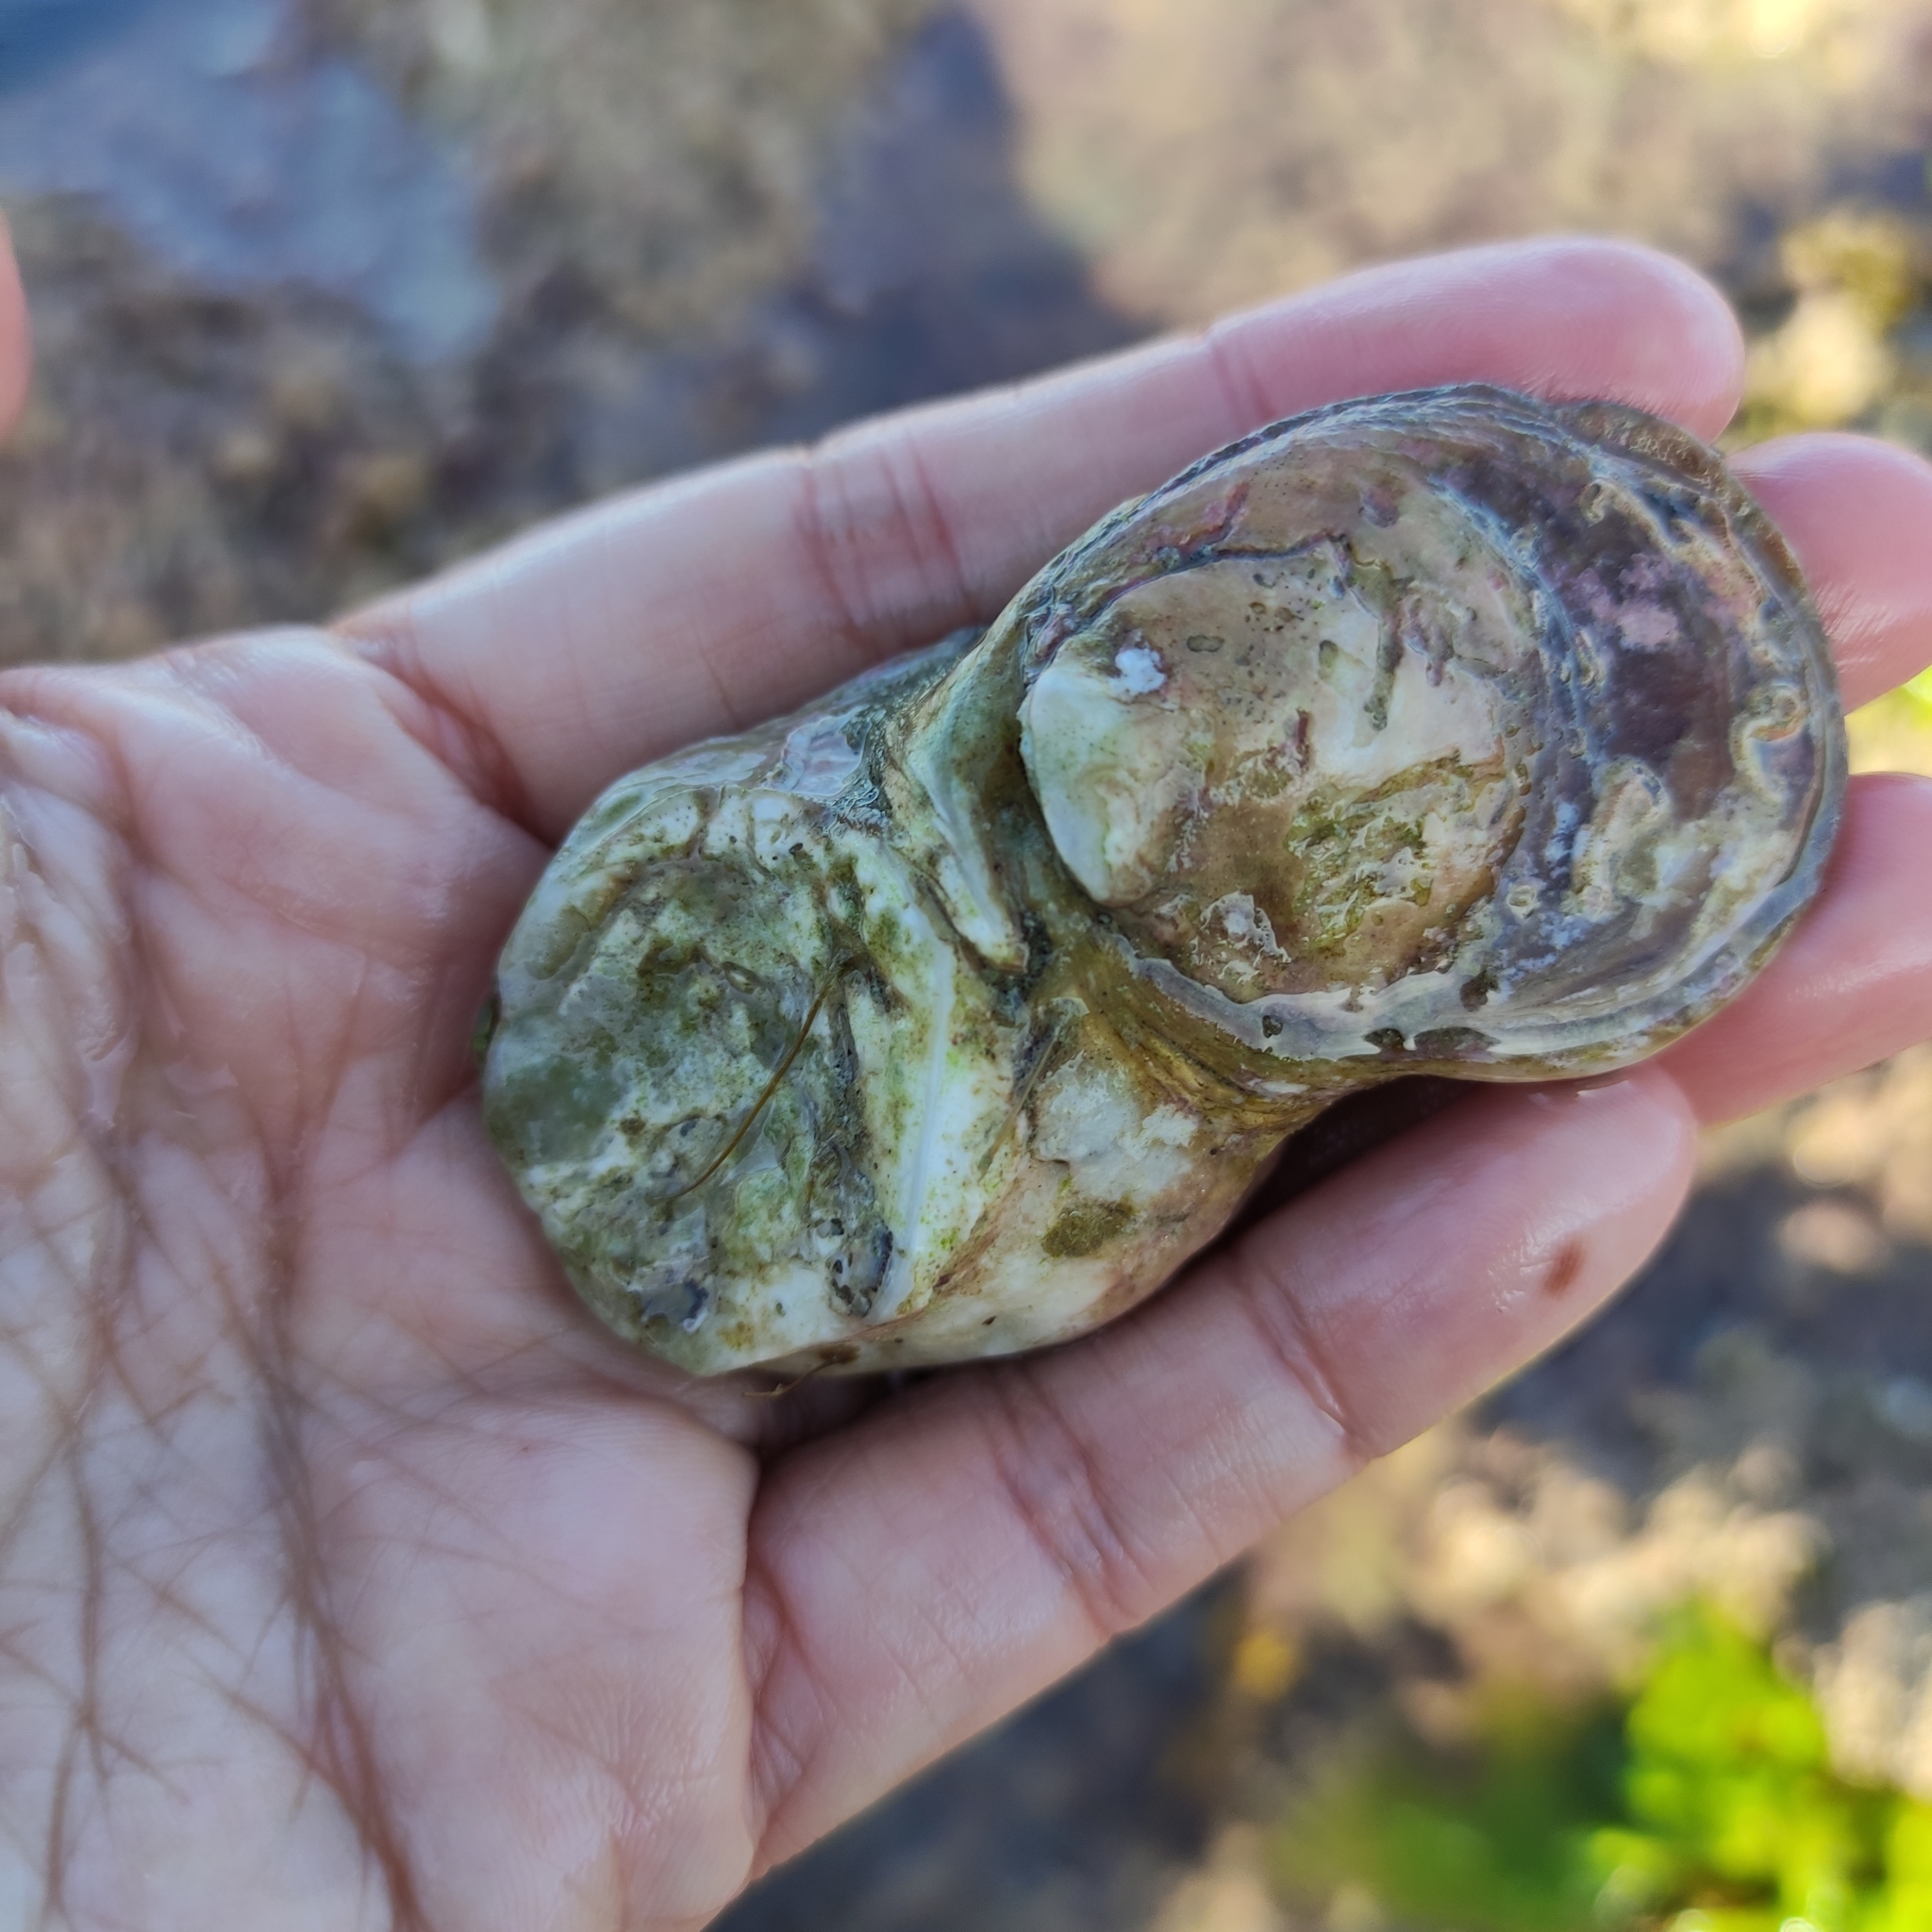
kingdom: Animalia
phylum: Mollusca
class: Bivalvia
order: Ostreida
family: Ostreidae
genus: Ostrea
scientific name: Ostrea chilensis
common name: Chilean oyster
